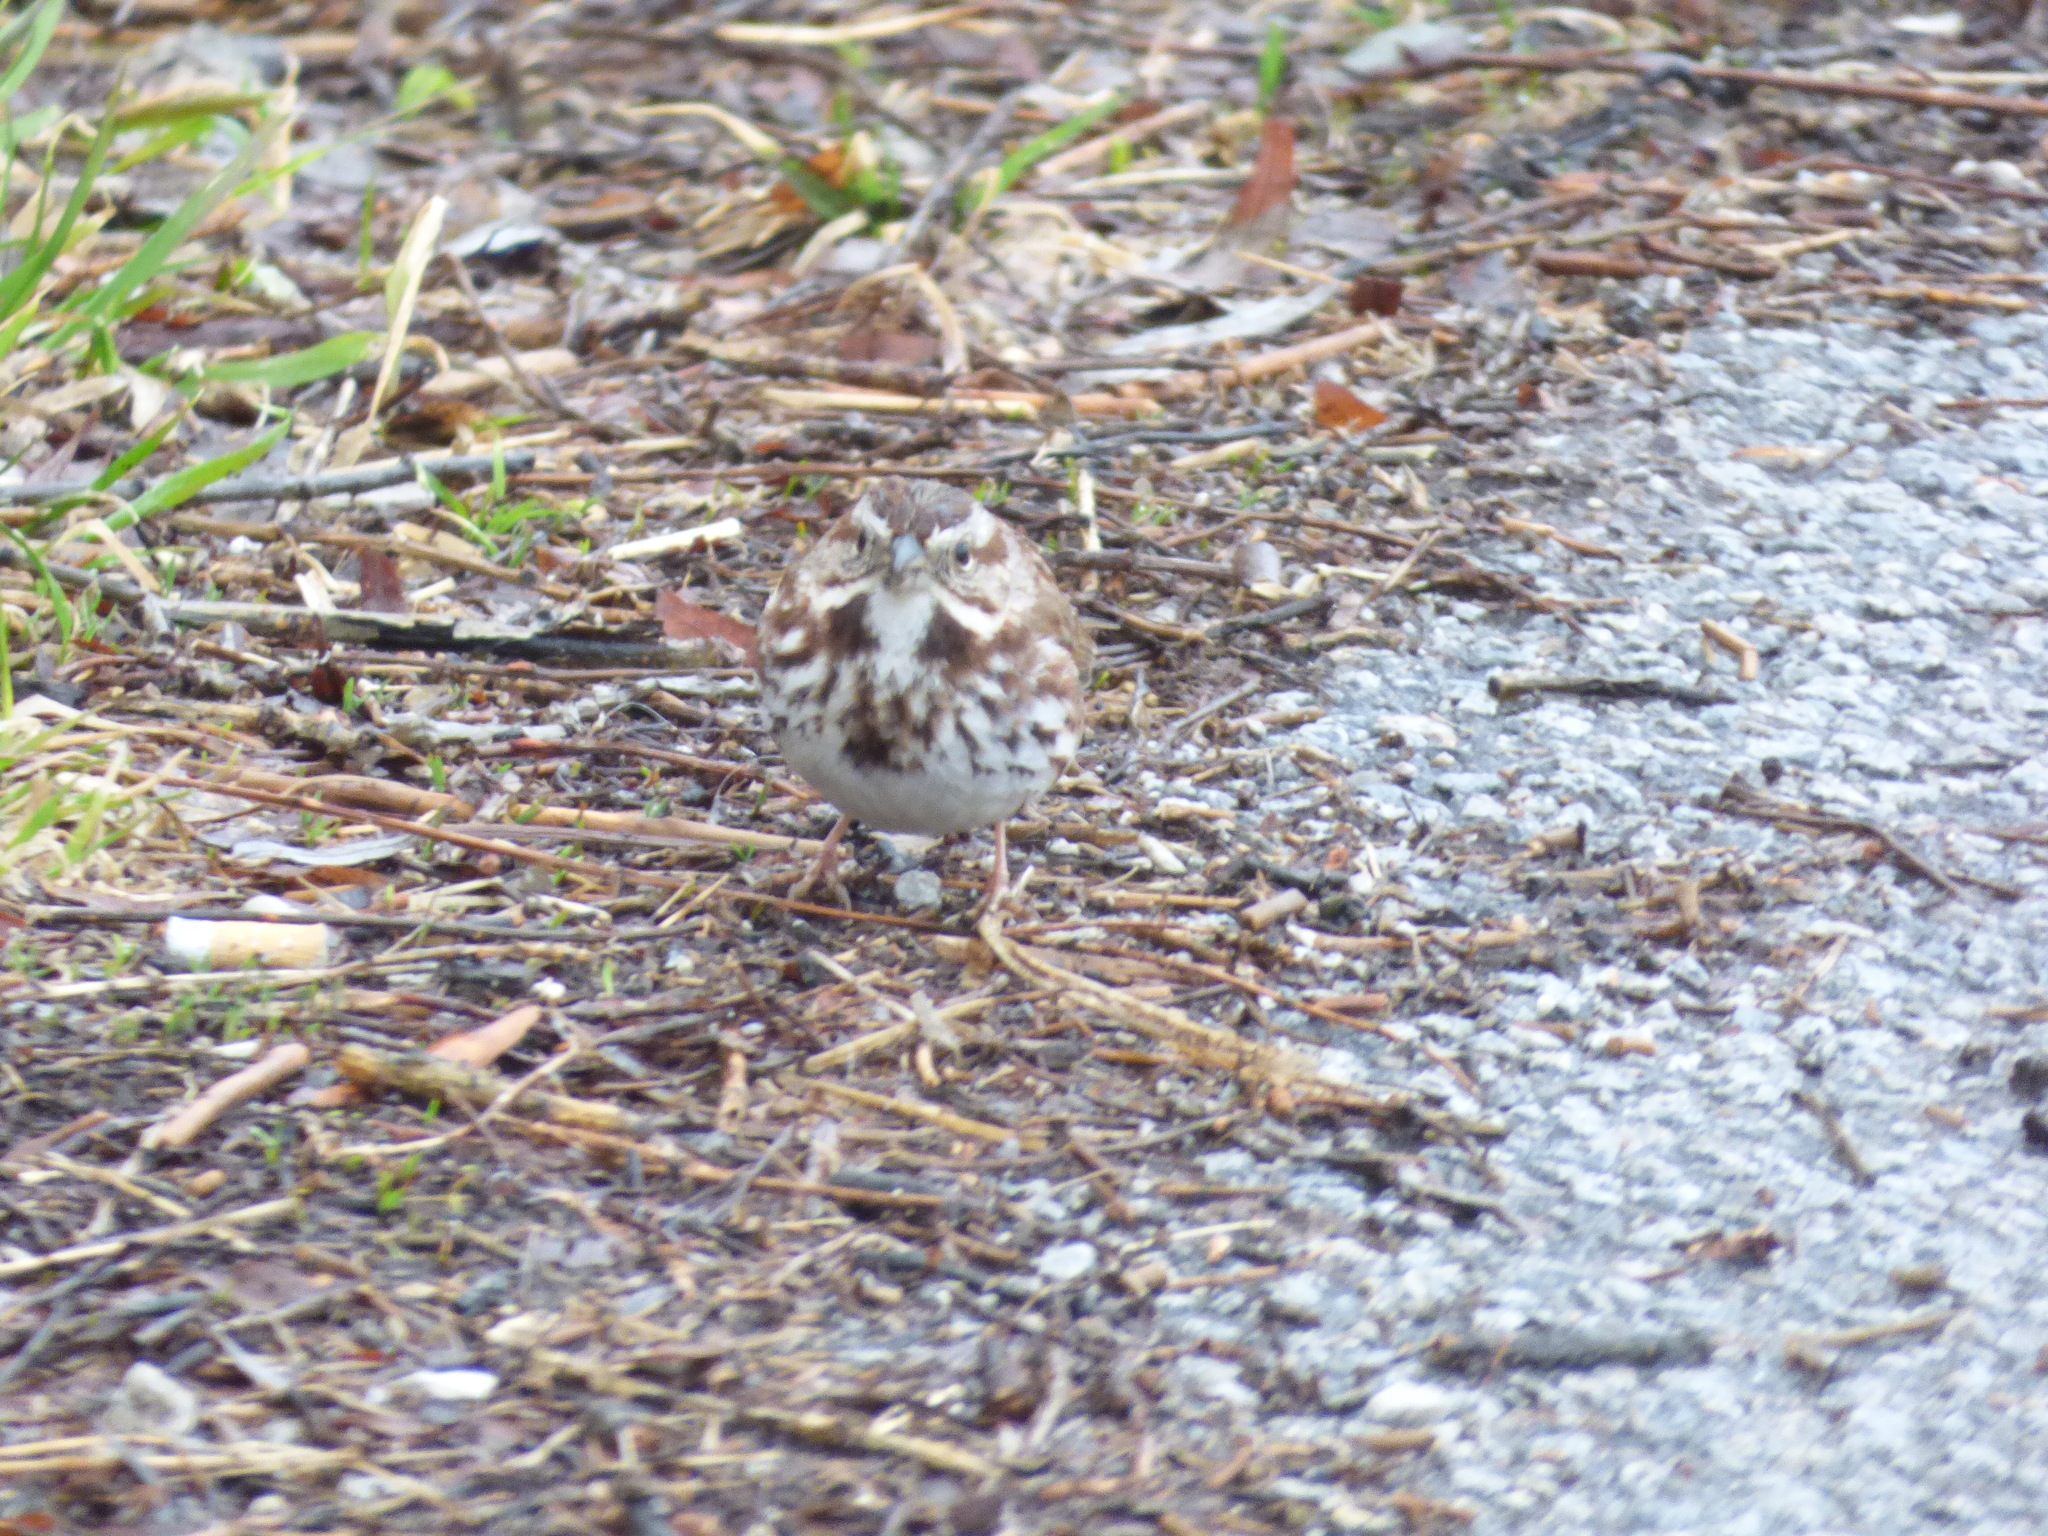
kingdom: Animalia
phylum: Chordata
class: Aves
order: Passeriformes
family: Passerellidae
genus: Melospiza
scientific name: Melospiza melodia
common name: Song sparrow
